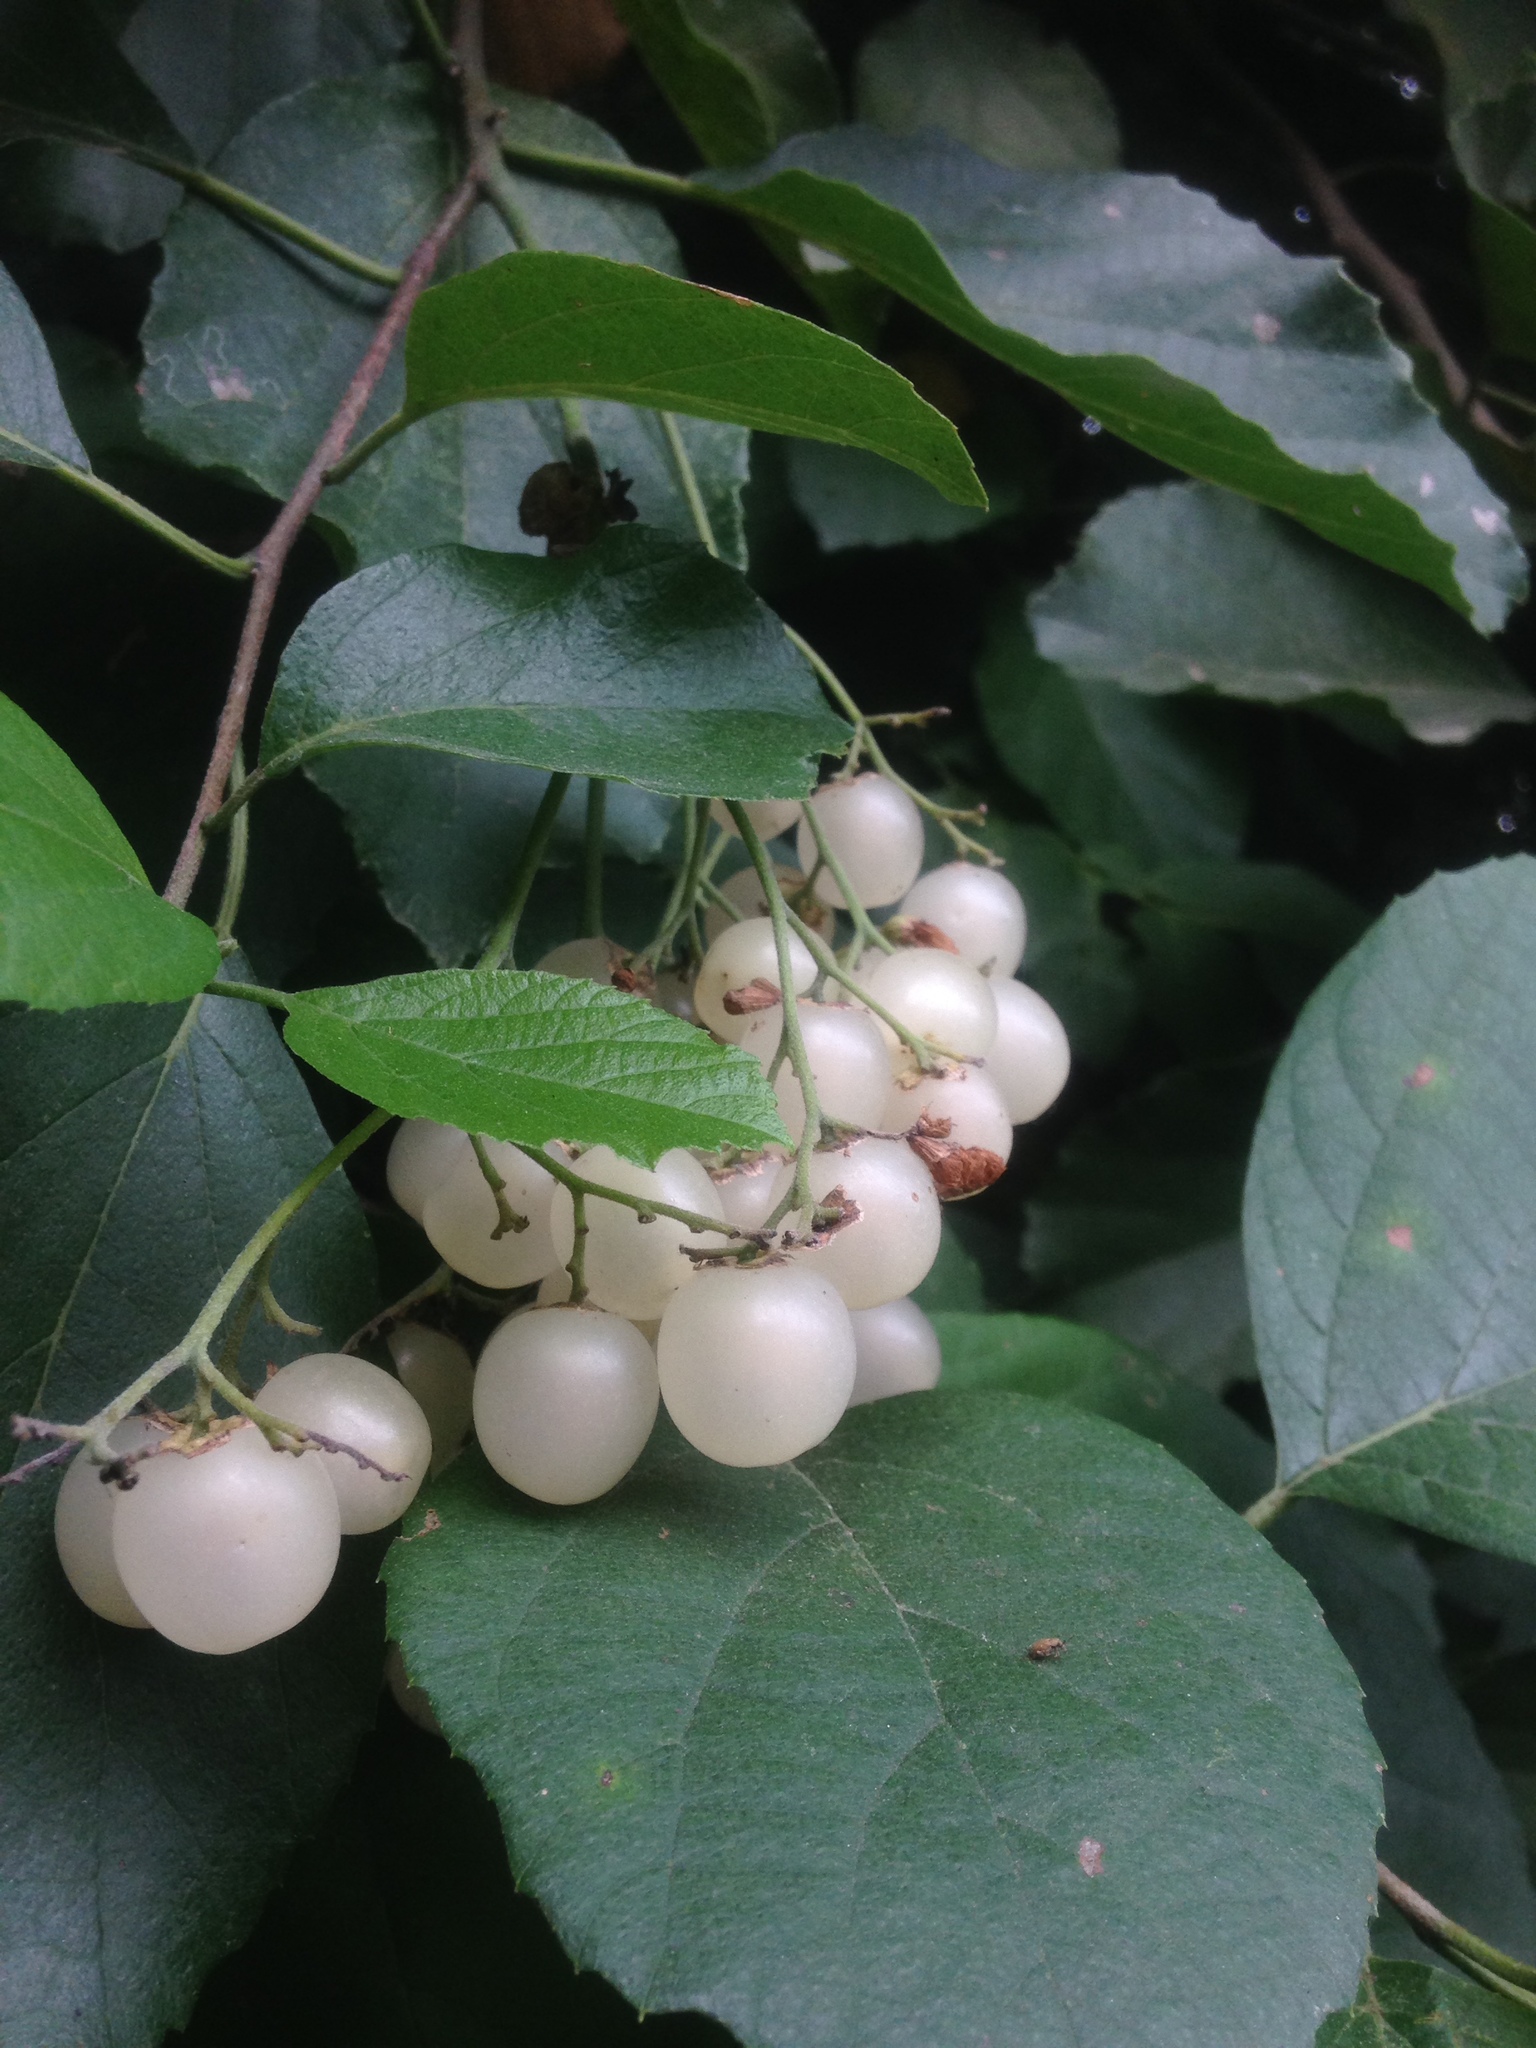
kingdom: Plantae
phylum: Tracheophyta
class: Magnoliopsida
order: Boraginales
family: Cordiaceae
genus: Cordia
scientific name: Cordia dentata
